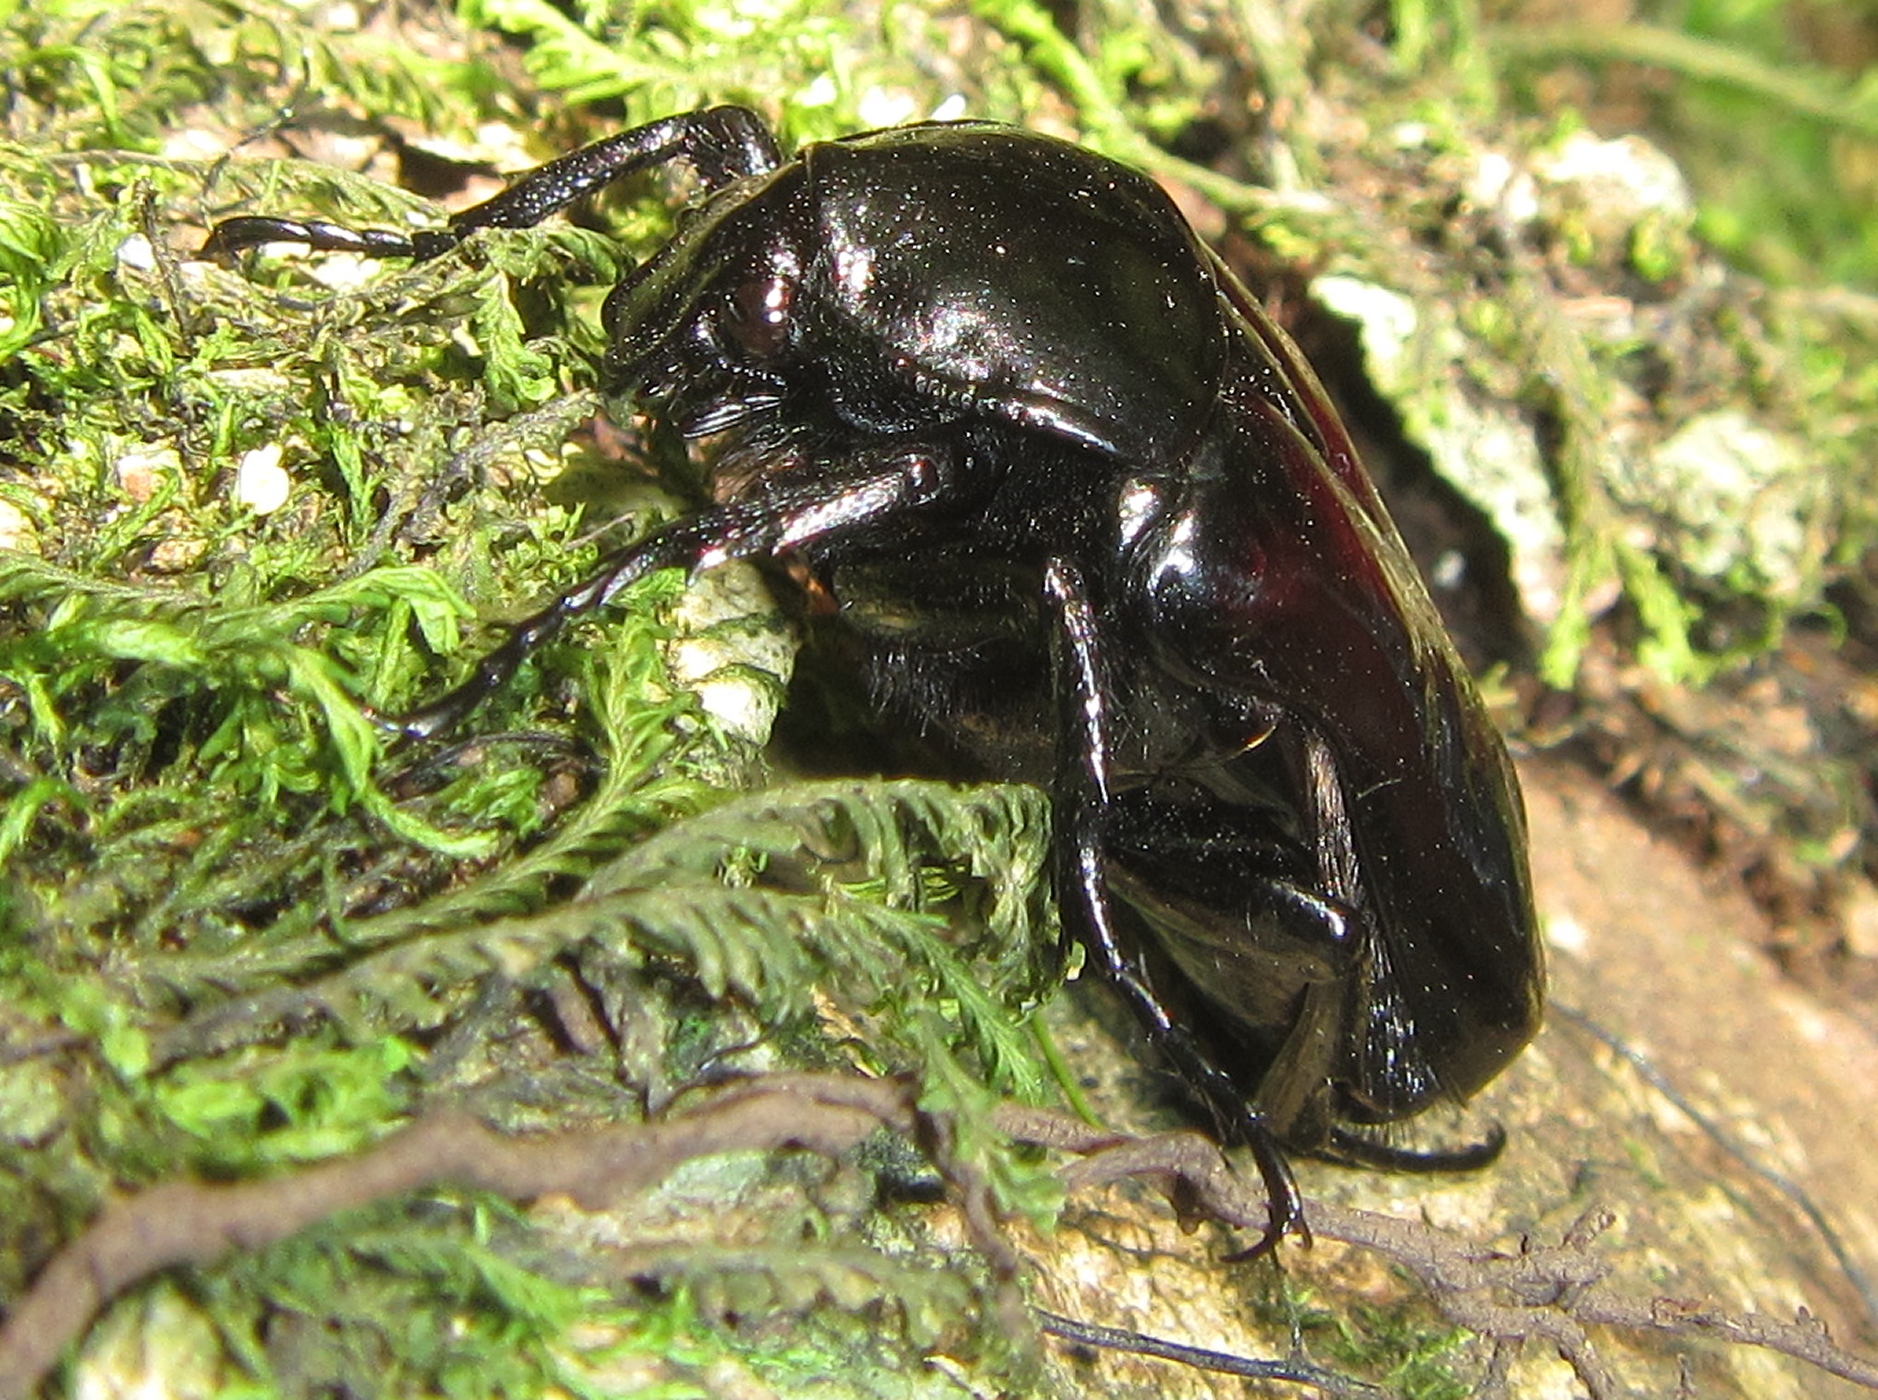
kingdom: Animalia
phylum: Arthropoda
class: Insecta
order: Coleoptera
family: Scarabaeidae
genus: Scythropesthes
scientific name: Scythropesthes bicolor
